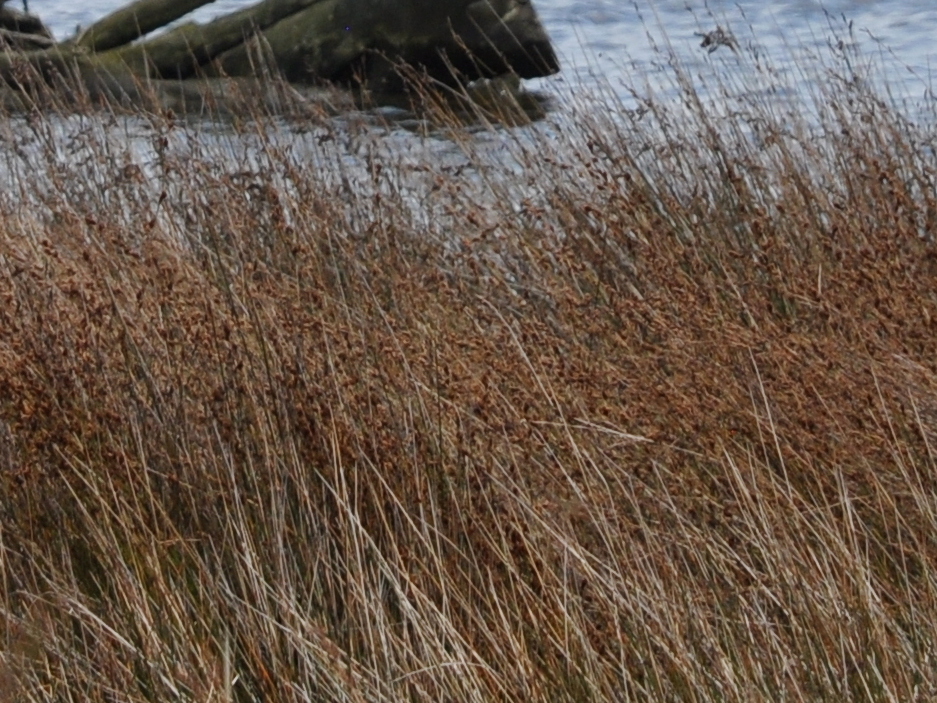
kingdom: Plantae
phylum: Tracheophyta
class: Liliopsida
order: Poales
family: Restionaceae
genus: Apodasmia
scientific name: Apodasmia similis
